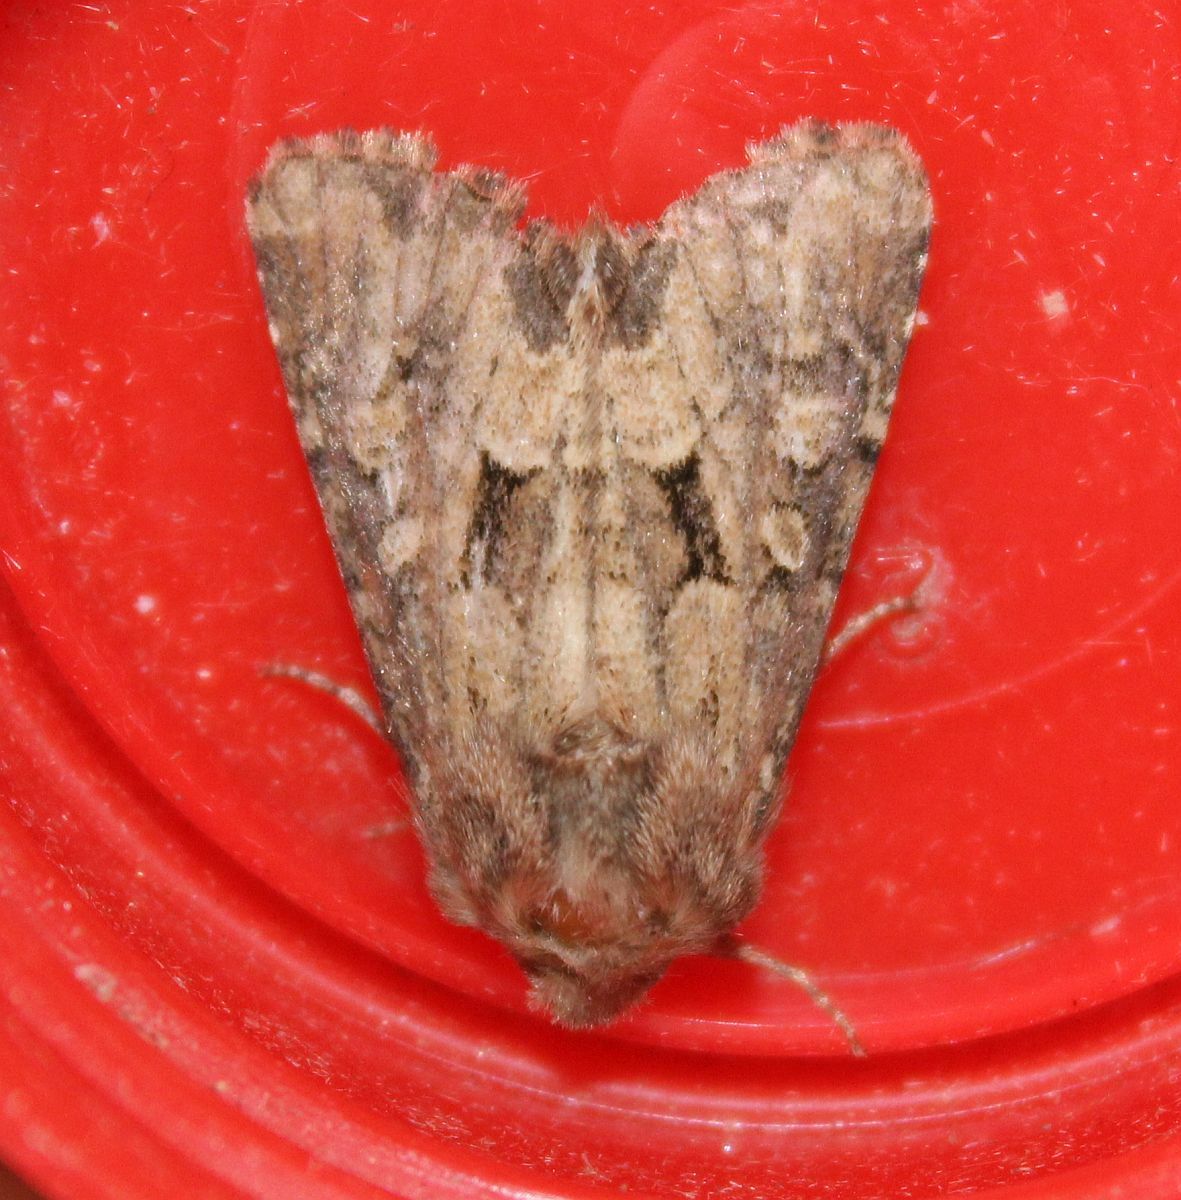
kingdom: Animalia
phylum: Arthropoda
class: Insecta
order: Lepidoptera
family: Noctuidae
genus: Luperina
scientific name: Luperina testacea
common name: Flounced rustic
